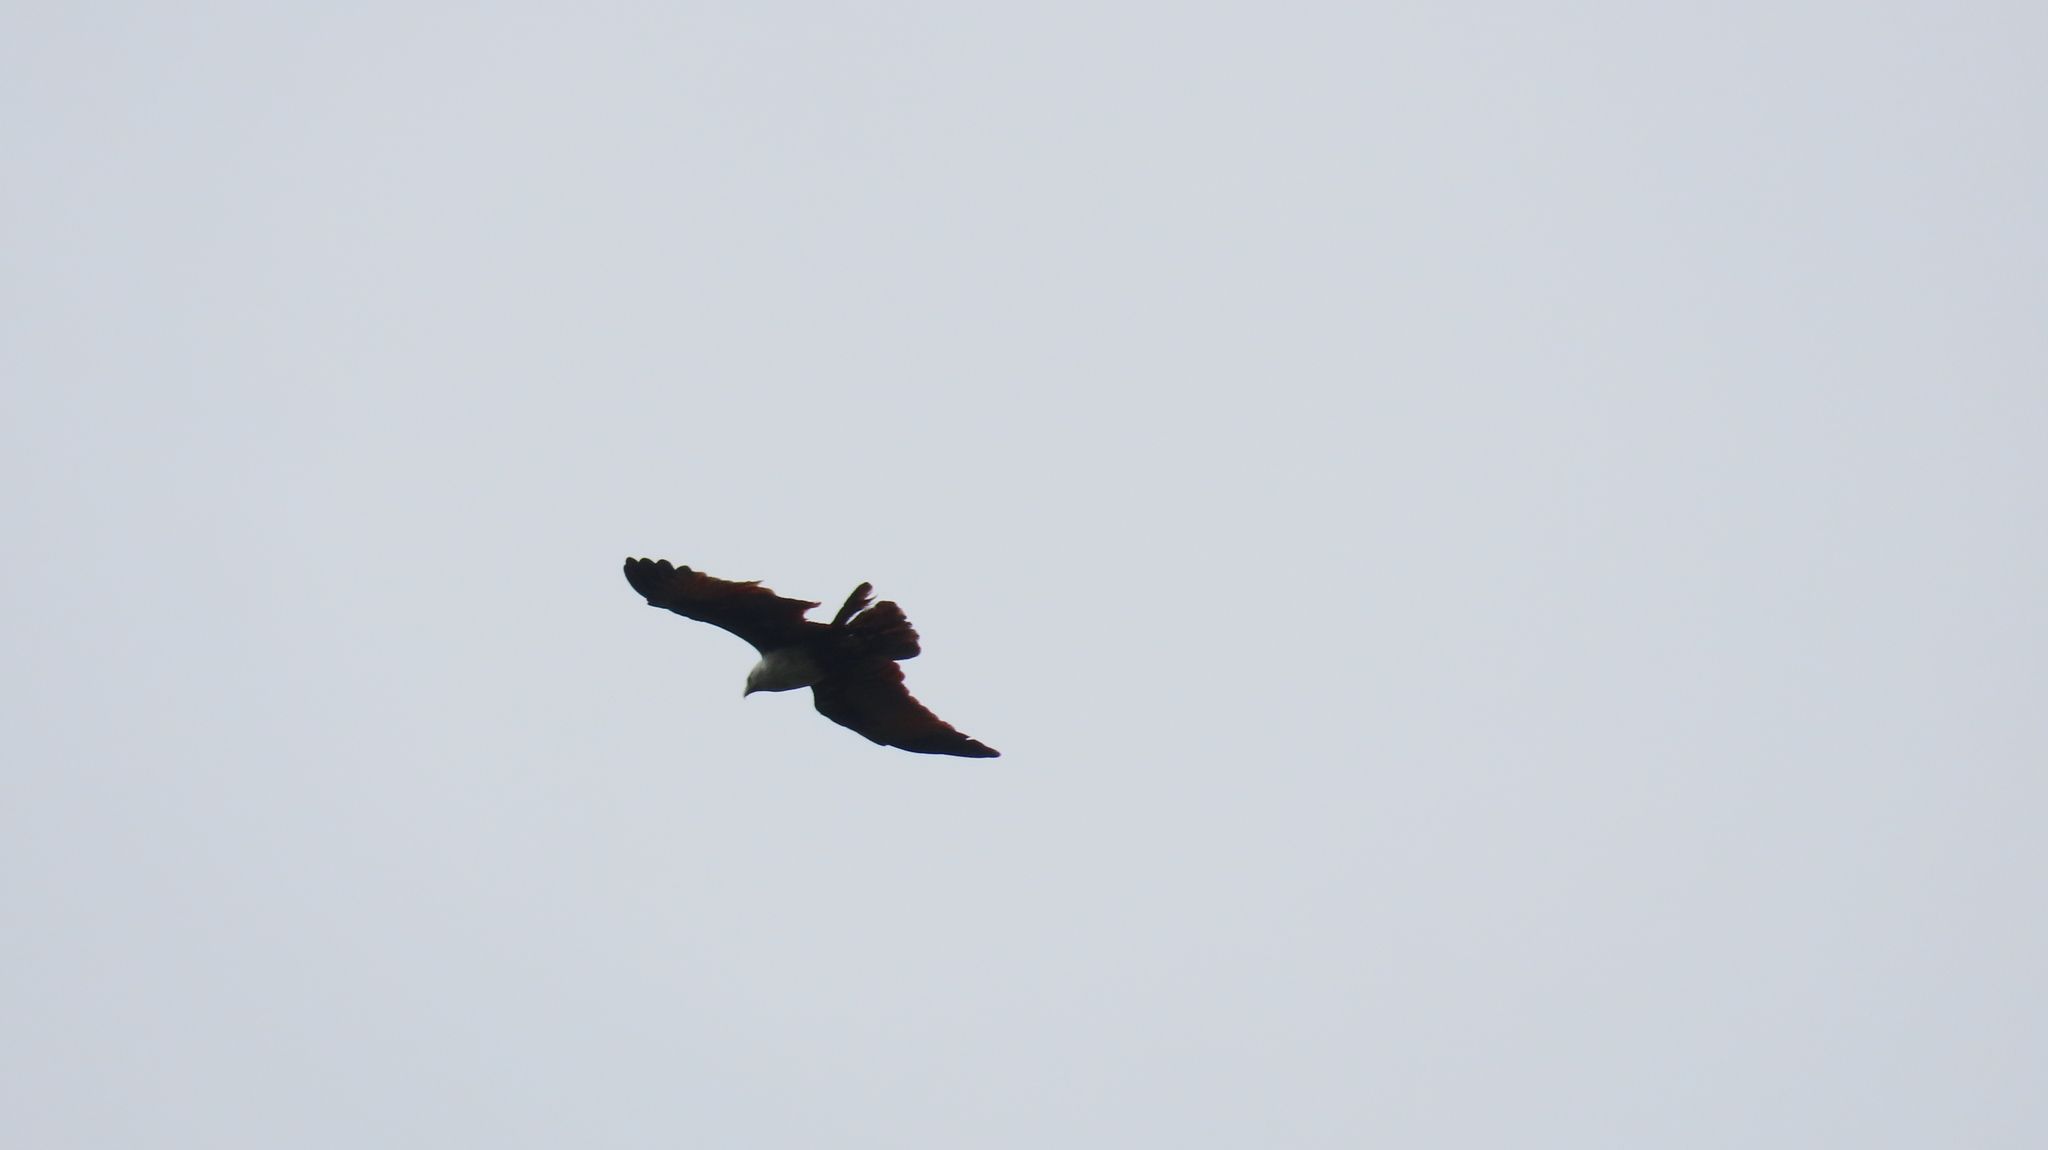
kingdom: Animalia
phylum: Chordata
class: Aves
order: Accipitriformes
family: Accipitridae
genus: Haliastur
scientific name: Haliastur indus
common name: Brahminy kite
